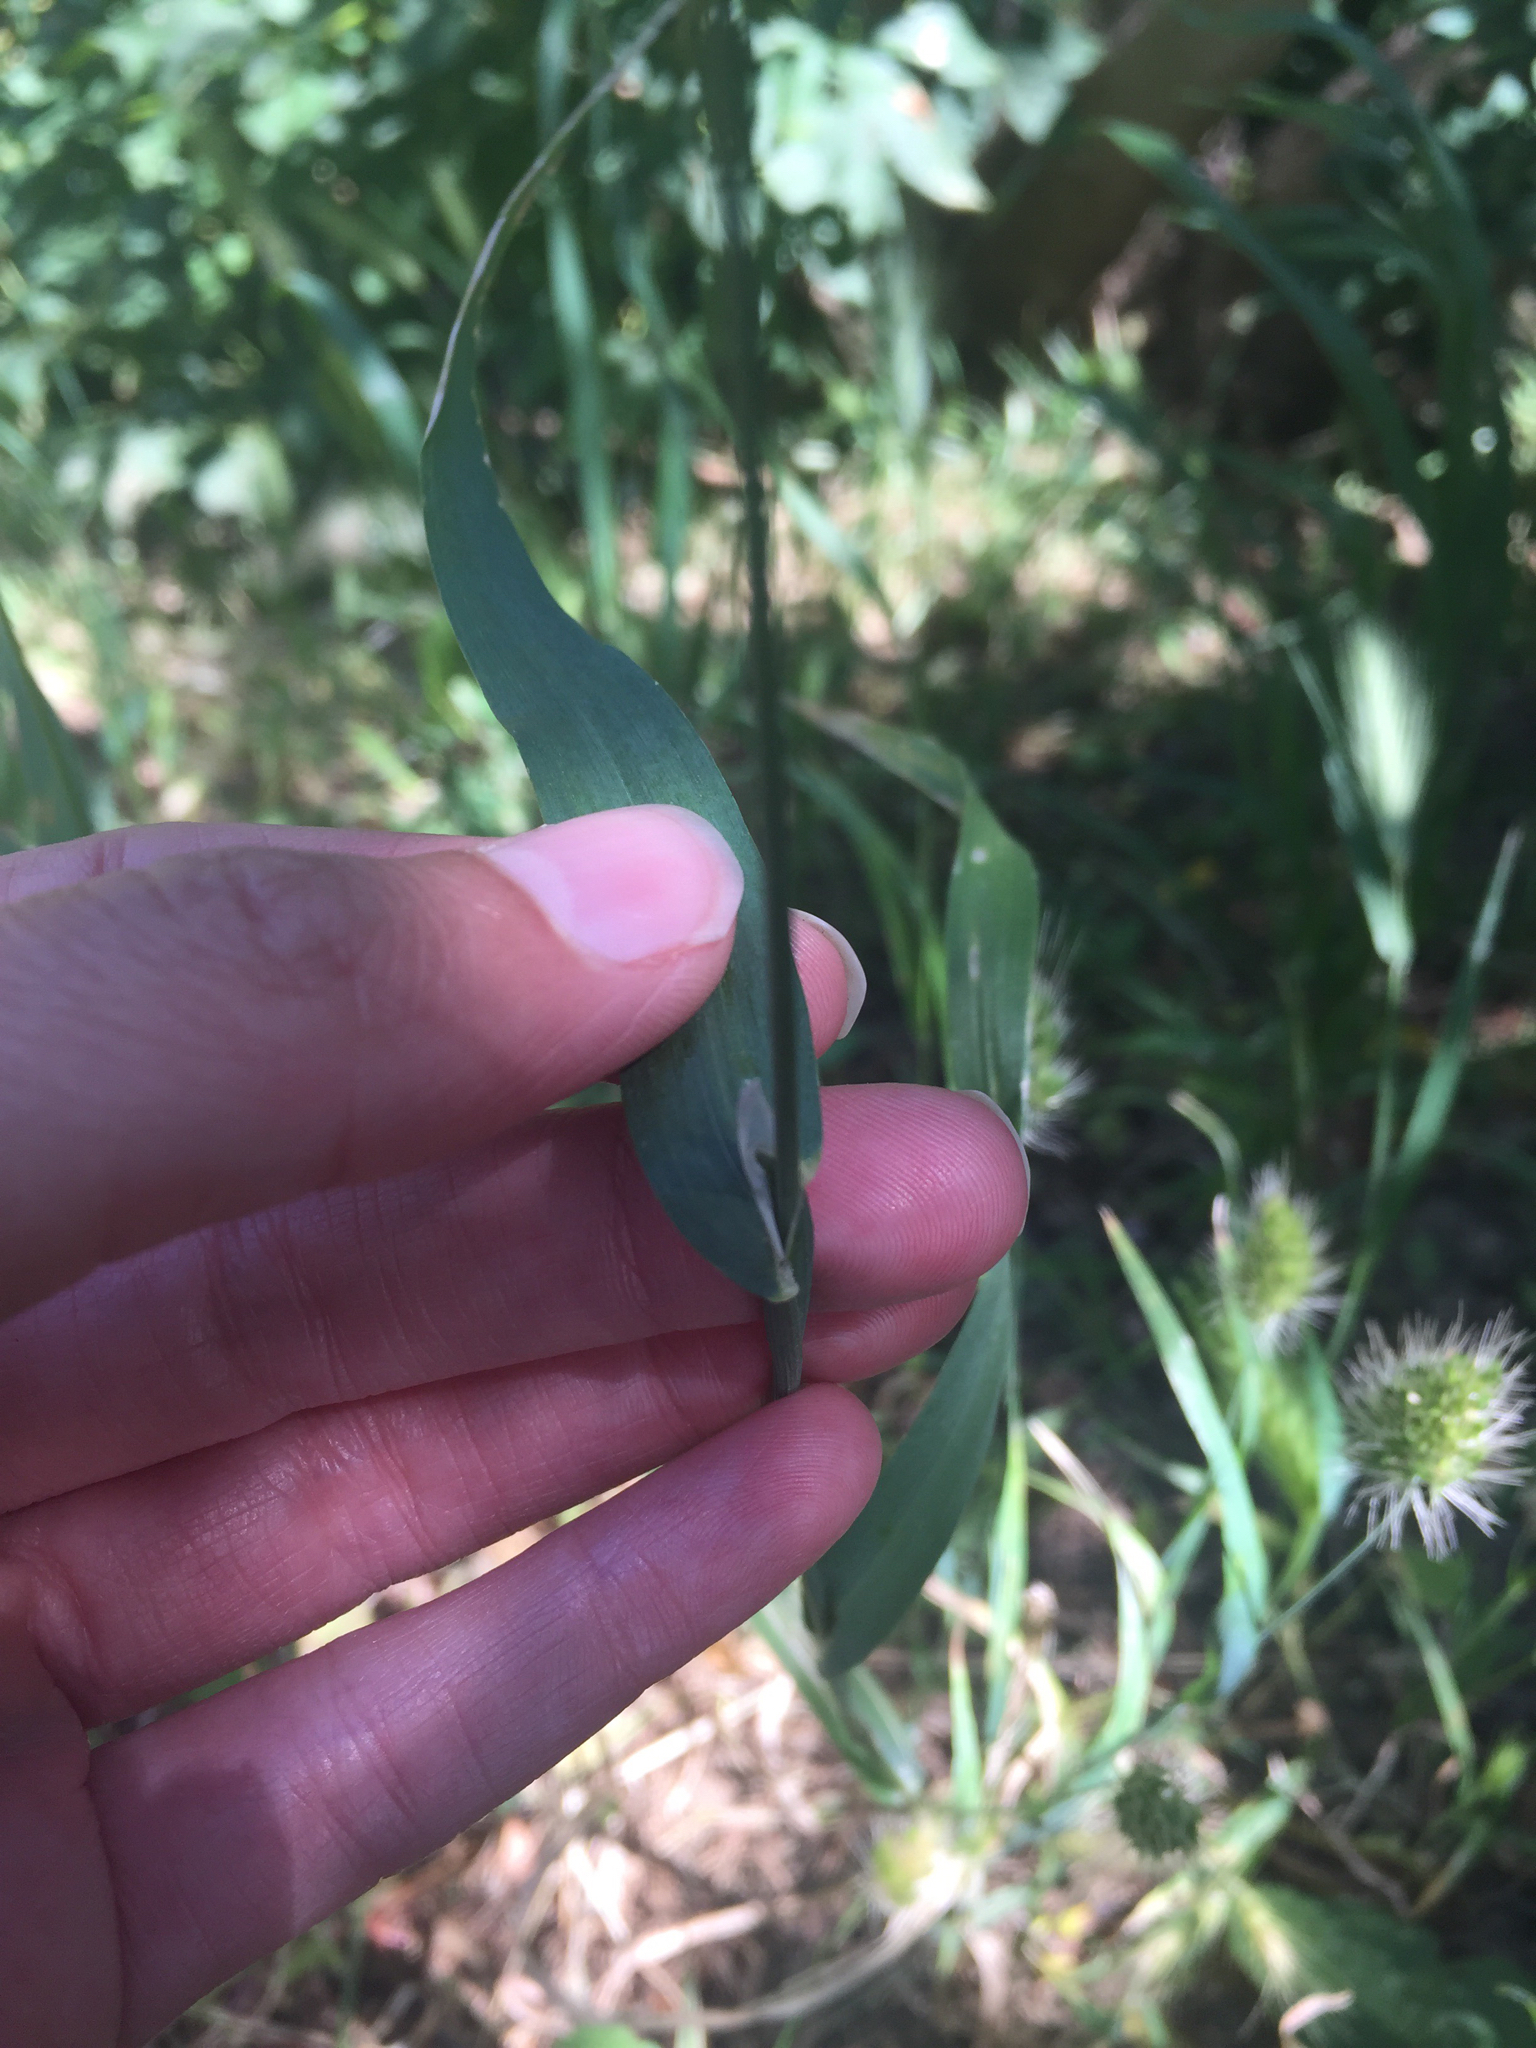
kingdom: Plantae
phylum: Tracheophyta
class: Liliopsida
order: Poales
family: Poaceae
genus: Cynosurus
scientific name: Cynosurus echinatus
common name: Rough dog's-tail
